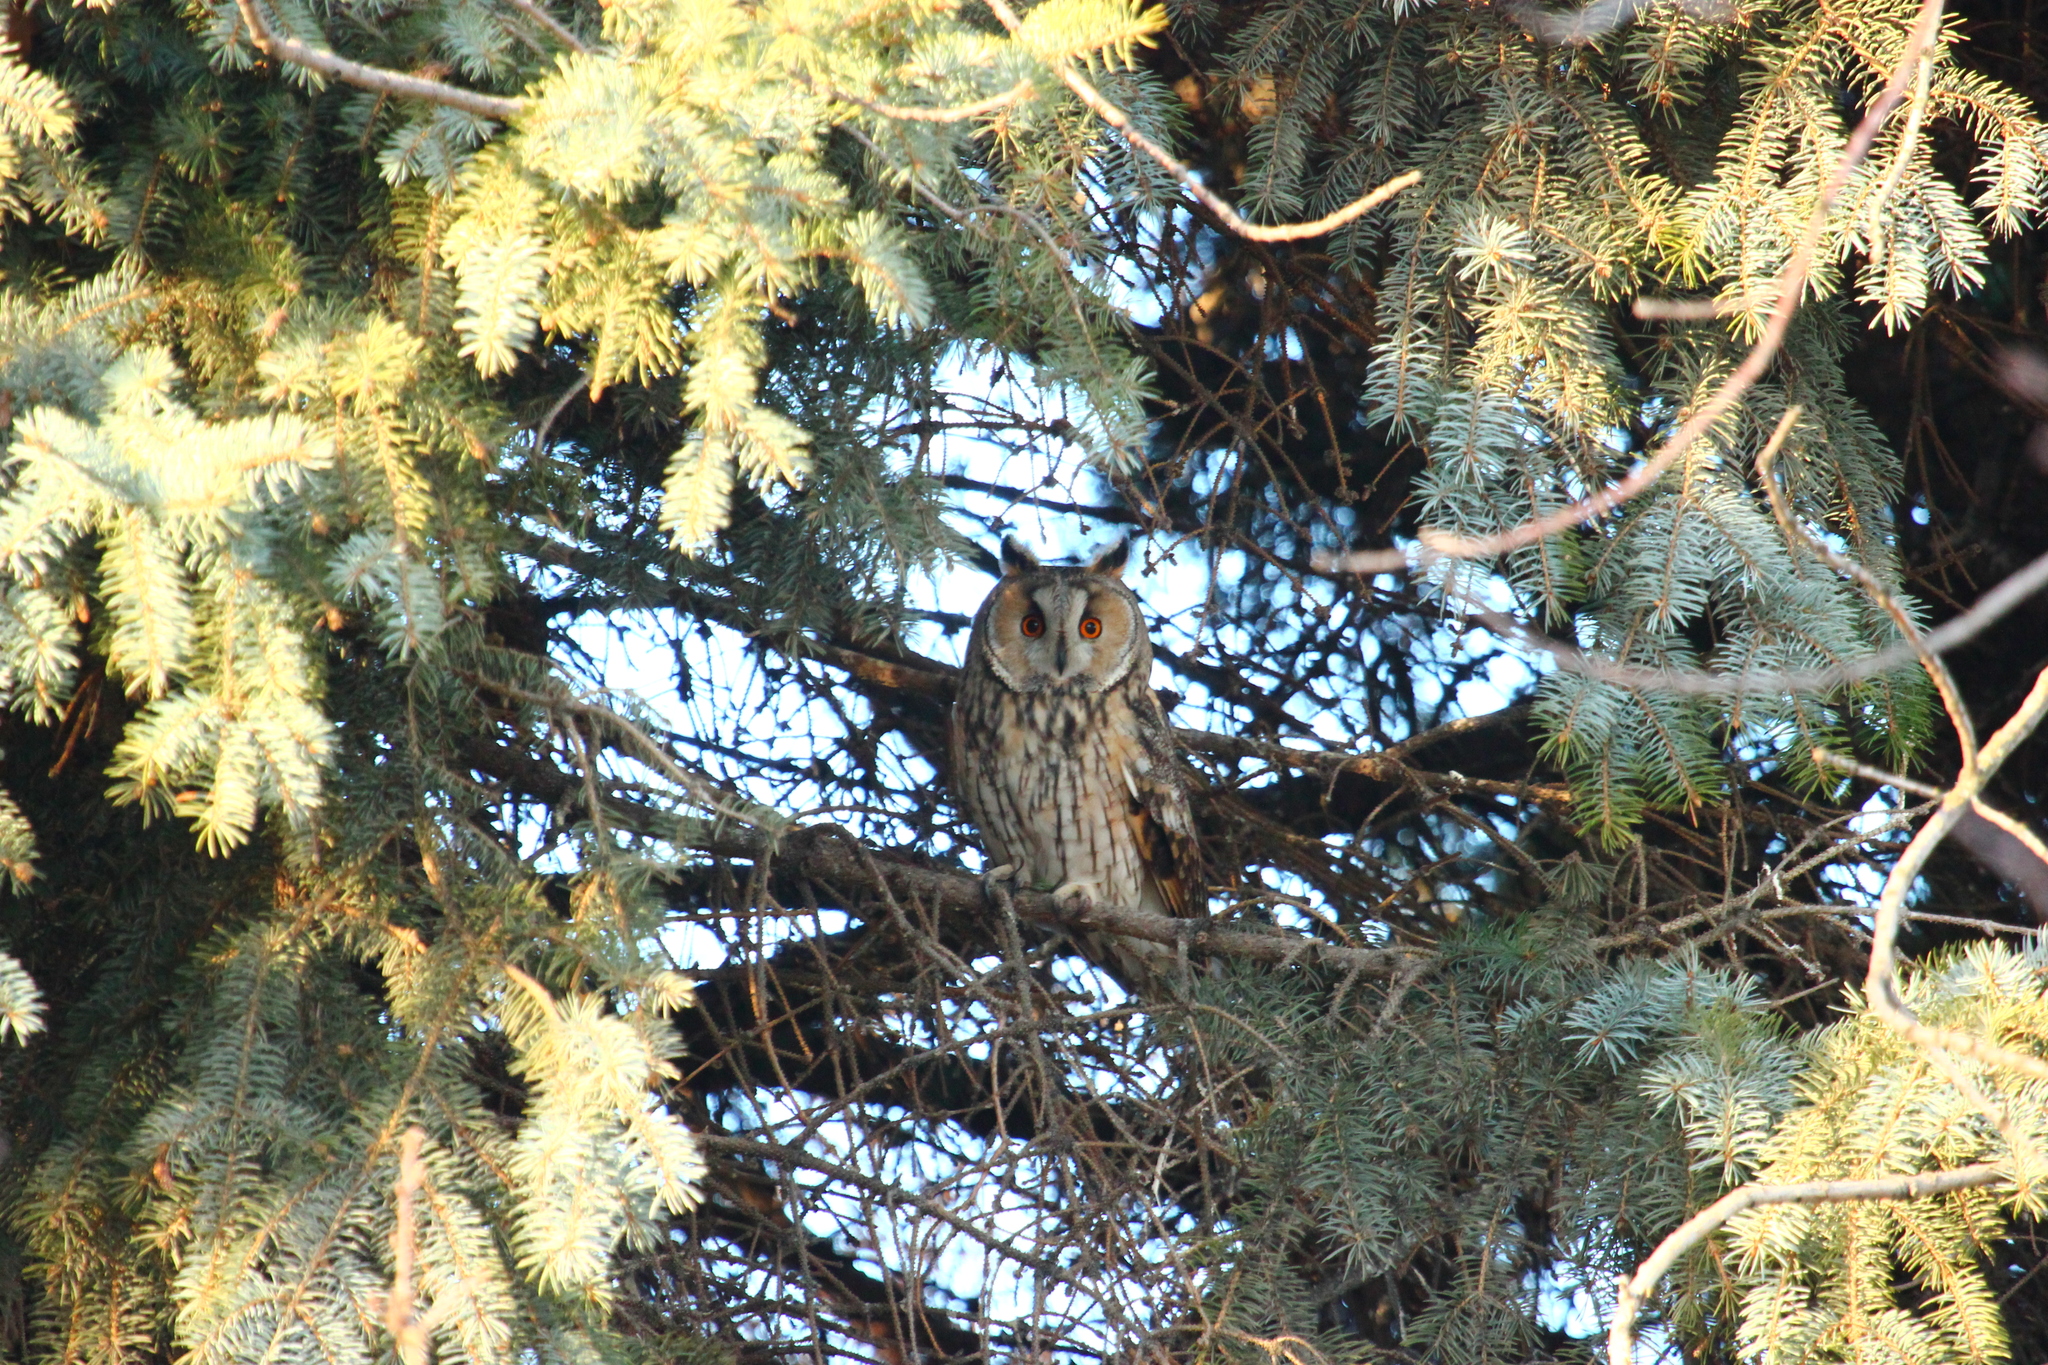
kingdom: Animalia
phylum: Chordata
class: Aves
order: Strigiformes
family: Strigidae
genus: Asio
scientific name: Asio otus
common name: Long-eared owl
